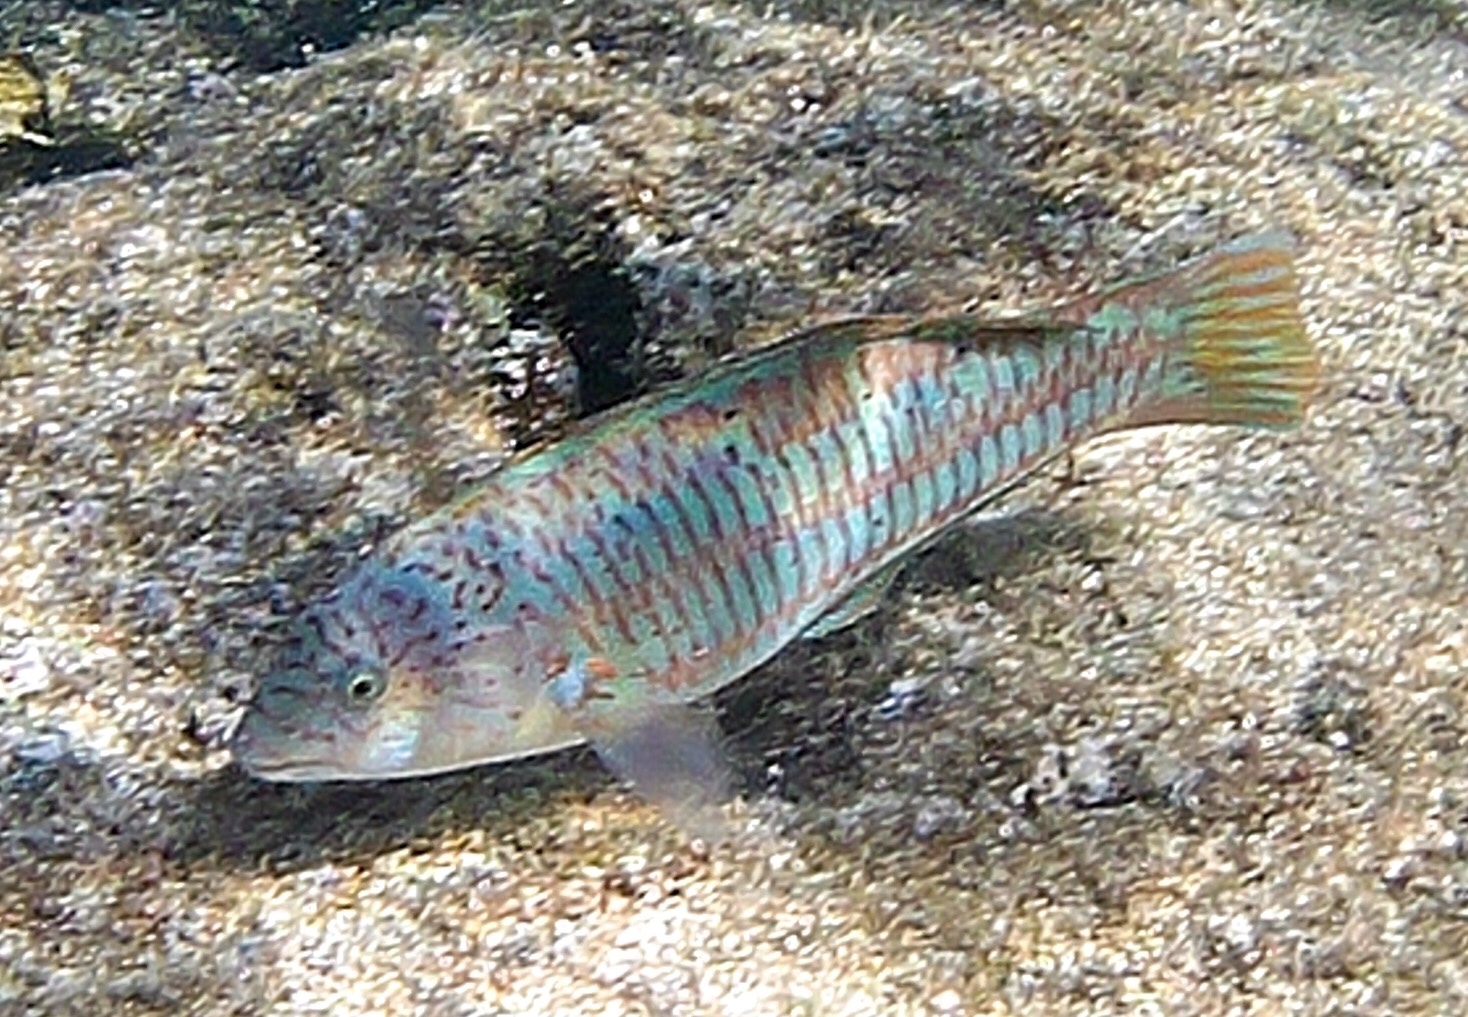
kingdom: Animalia
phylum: Chordata
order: Perciformes
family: Labridae
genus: Thalassoma
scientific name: Thalassoma trilobatum
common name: Christmas wrasse
